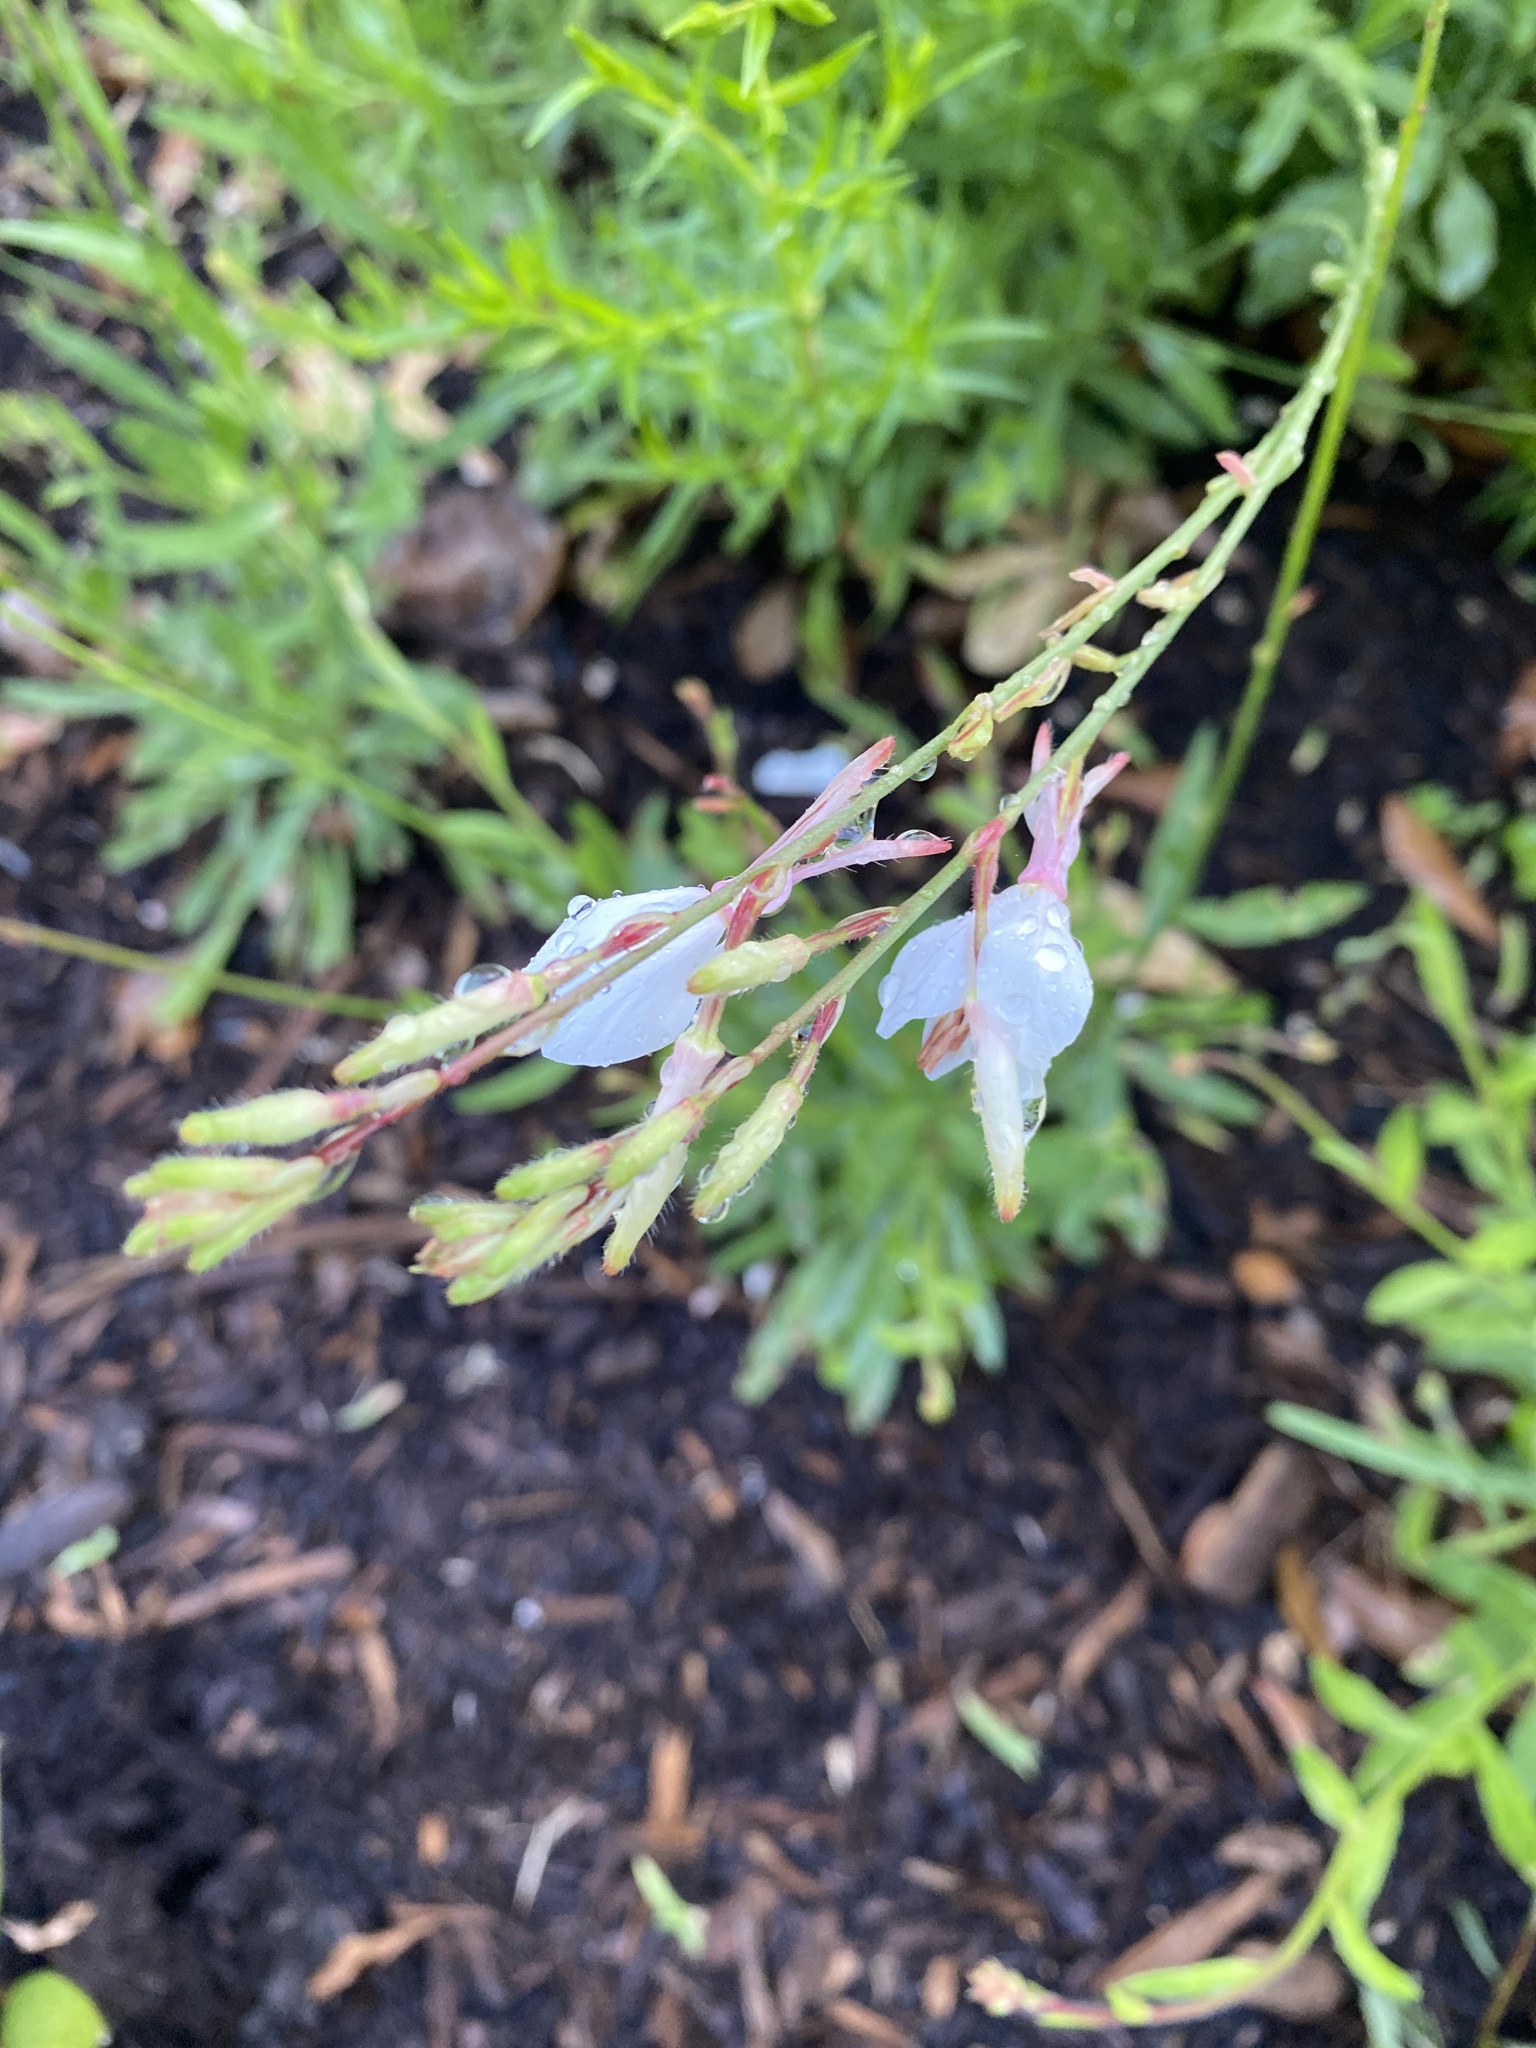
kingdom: Plantae
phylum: Tracheophyta
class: Magnoliopsida
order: Myrtales
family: Onagraceae
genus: Oenothera
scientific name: Oenothera lindheimeri
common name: Lindheimer's beeblossom
